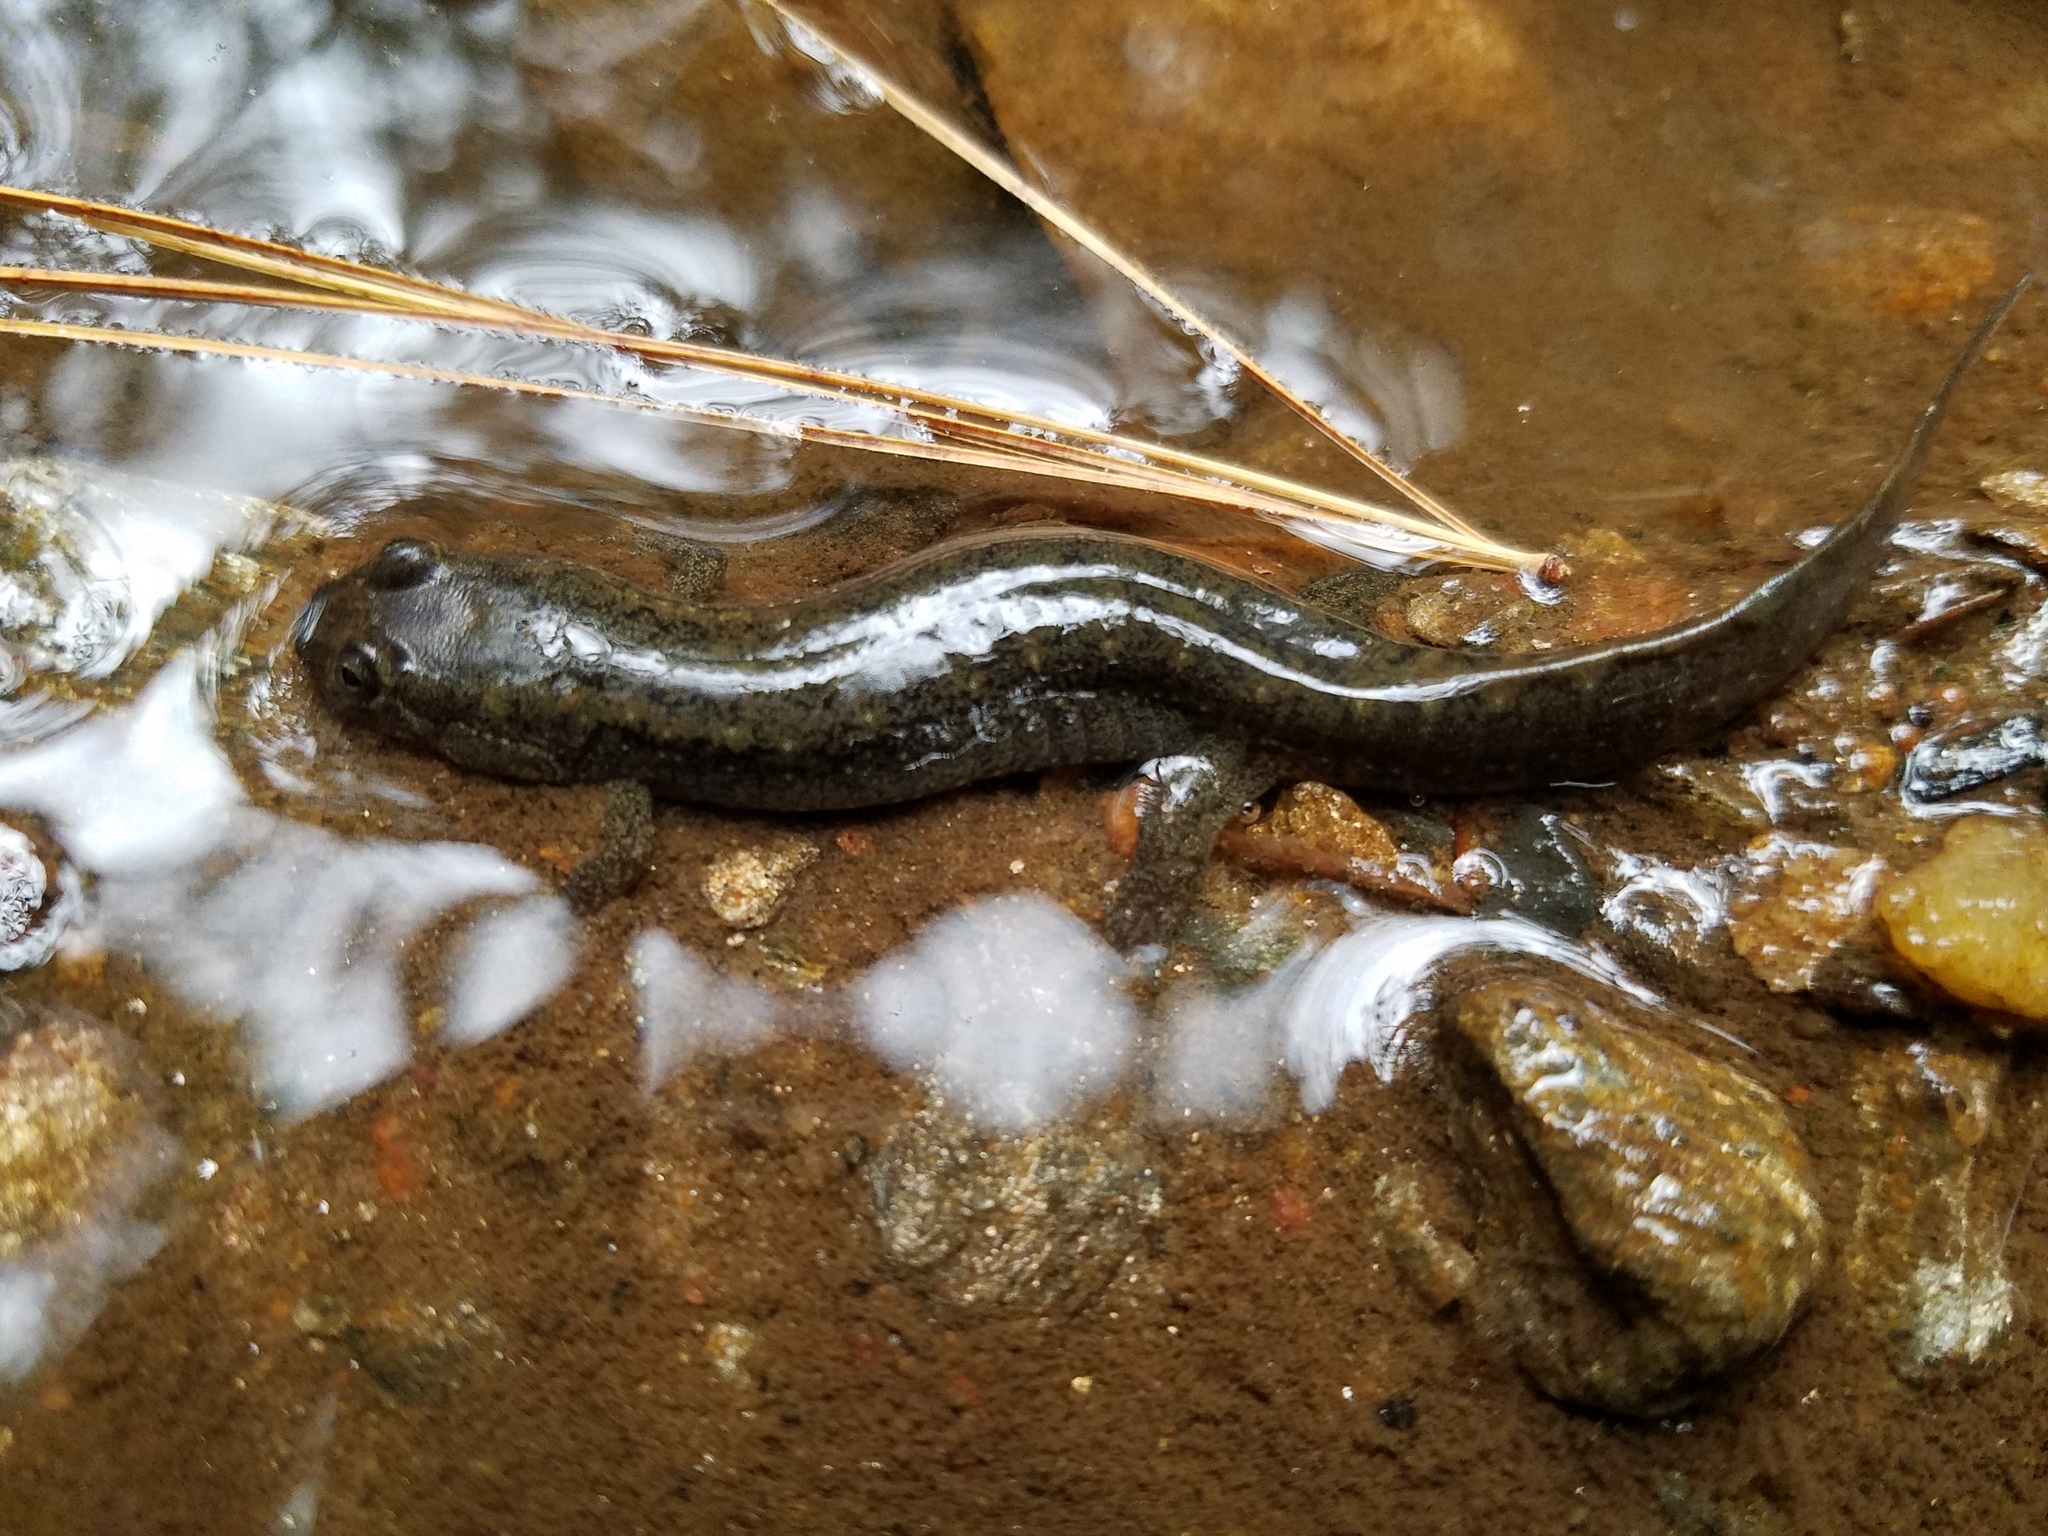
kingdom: Animalia
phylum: Chordata
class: Amphibia
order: Caudata
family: Plethodontidae
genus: Desmognathus
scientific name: Desmognathus
